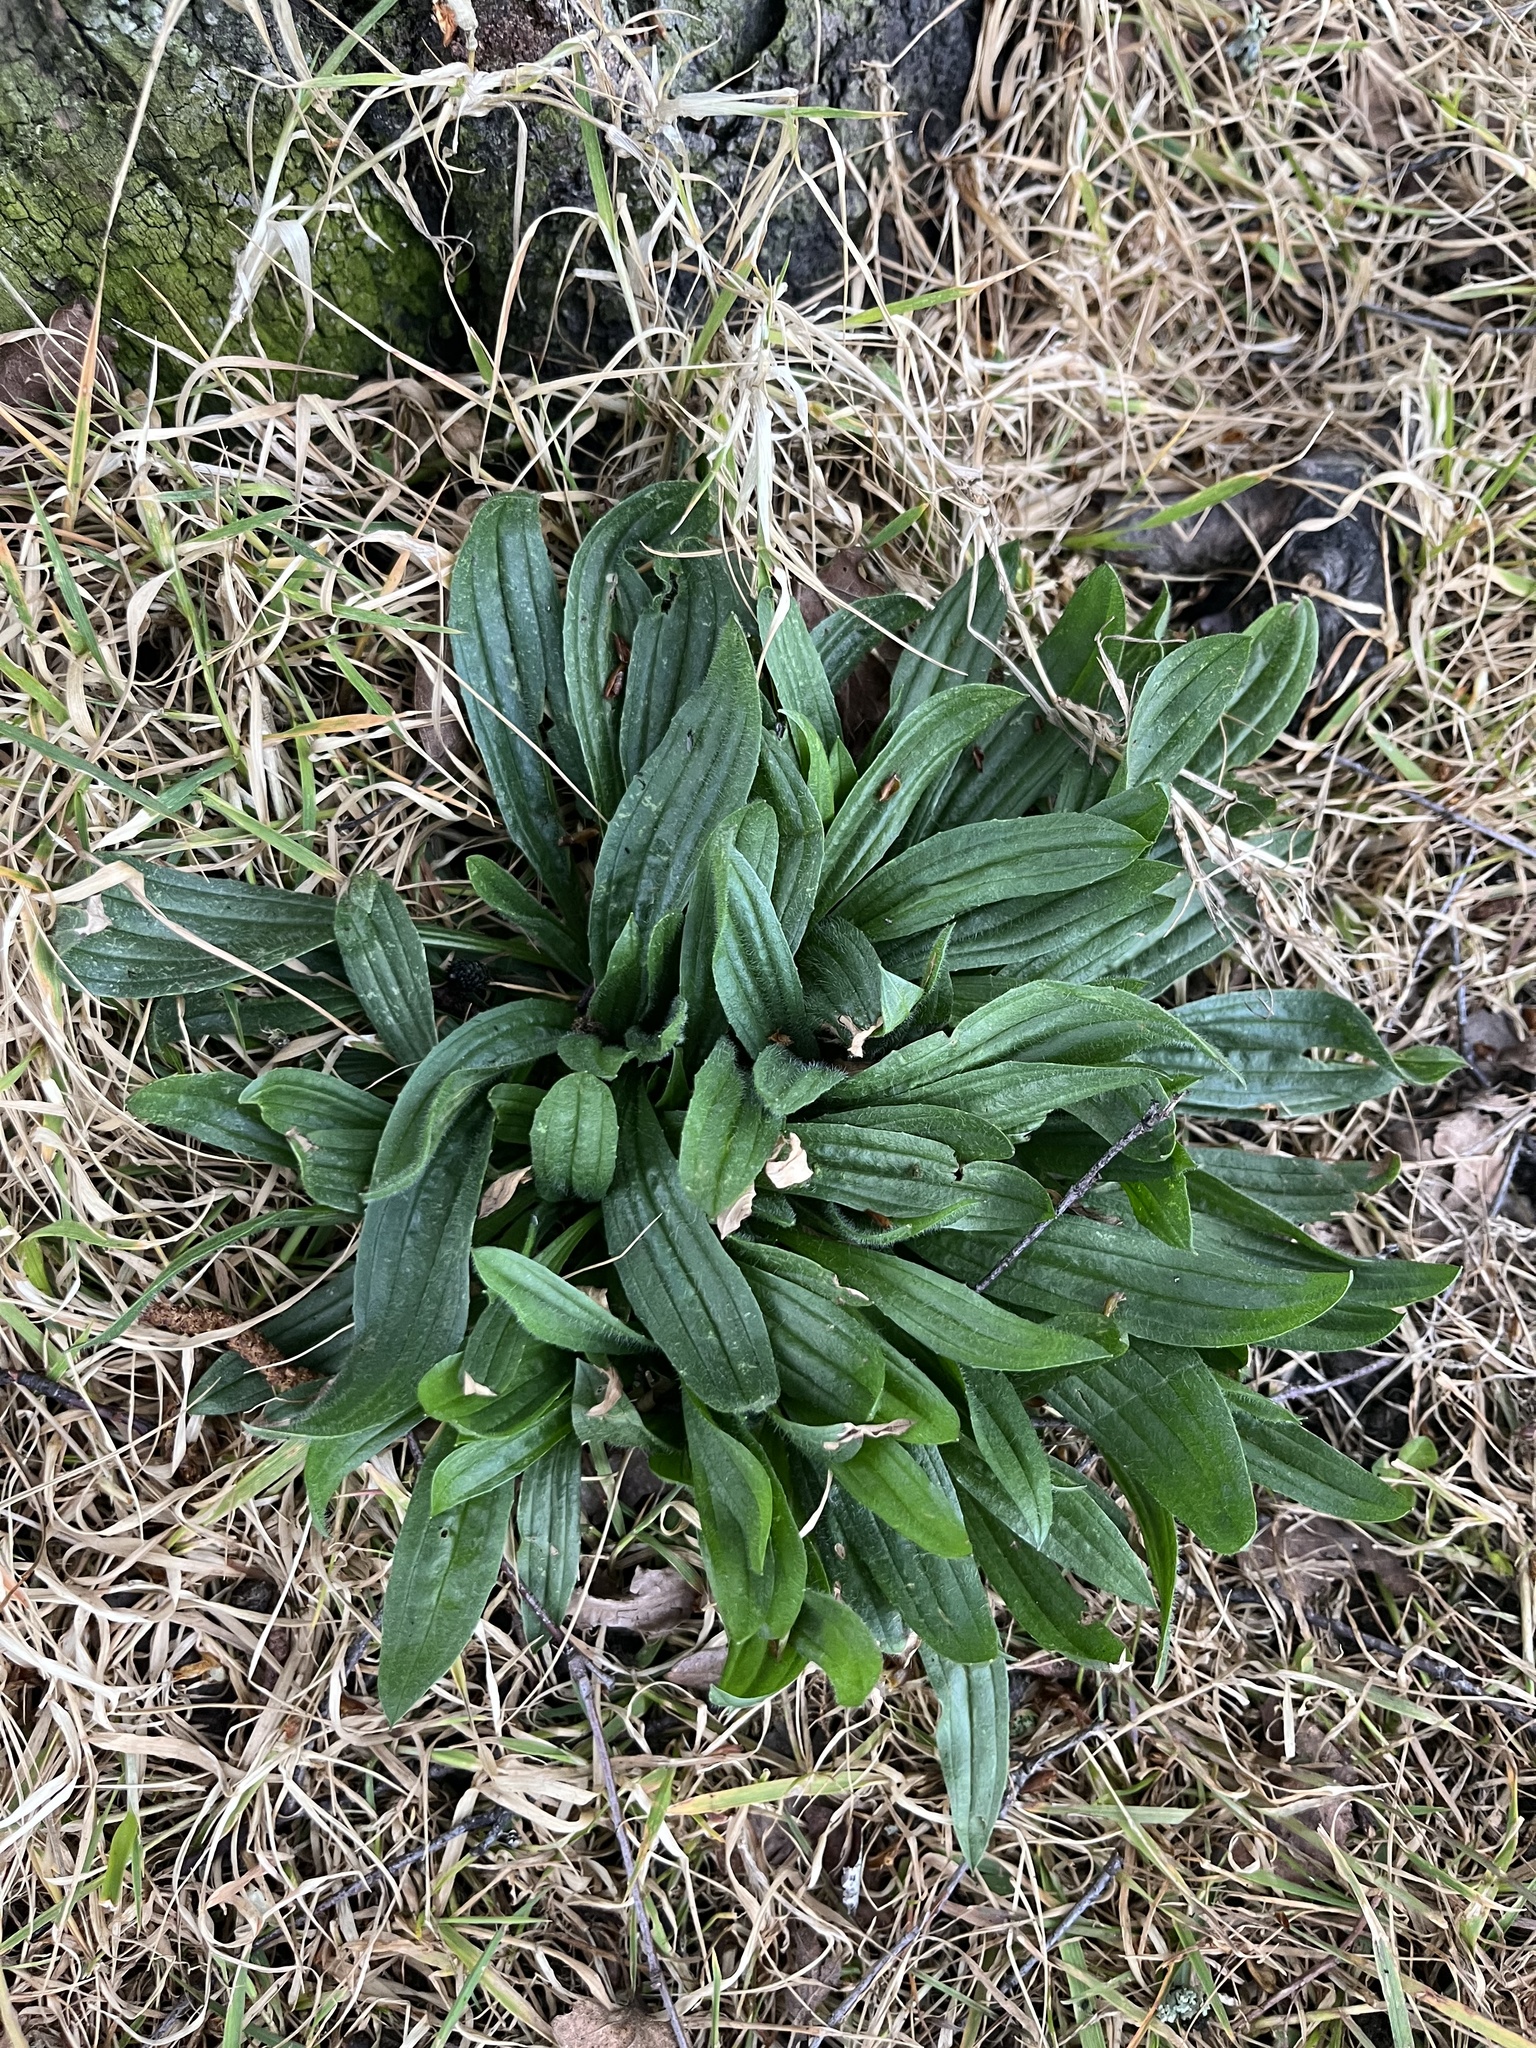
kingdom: Plantae
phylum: Tracheophyta
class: Magnoliopsida
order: Lamiales
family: Plantaginaceae
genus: Plantago
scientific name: Plantago lanceolata
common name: Ribwort plantain
